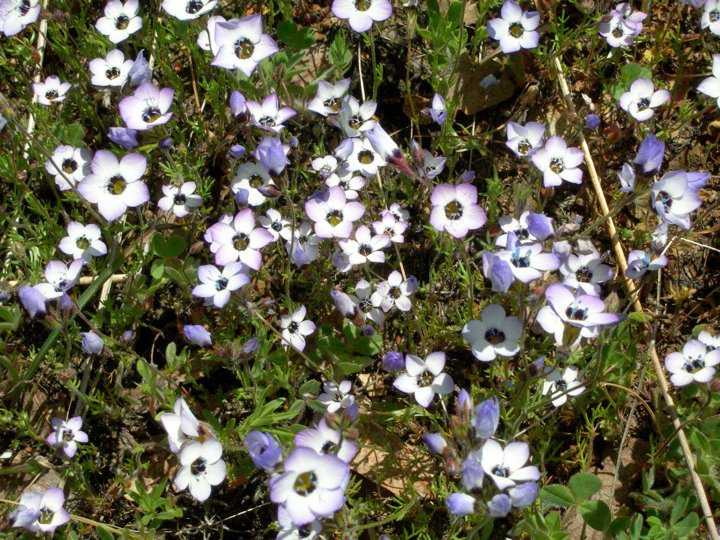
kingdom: Plantae
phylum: Tracheophyta
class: Magnoliopsida
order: Ericales
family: Polemoniaceae
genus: Gilia
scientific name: Gilia tricolor
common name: Bird's-eyes
